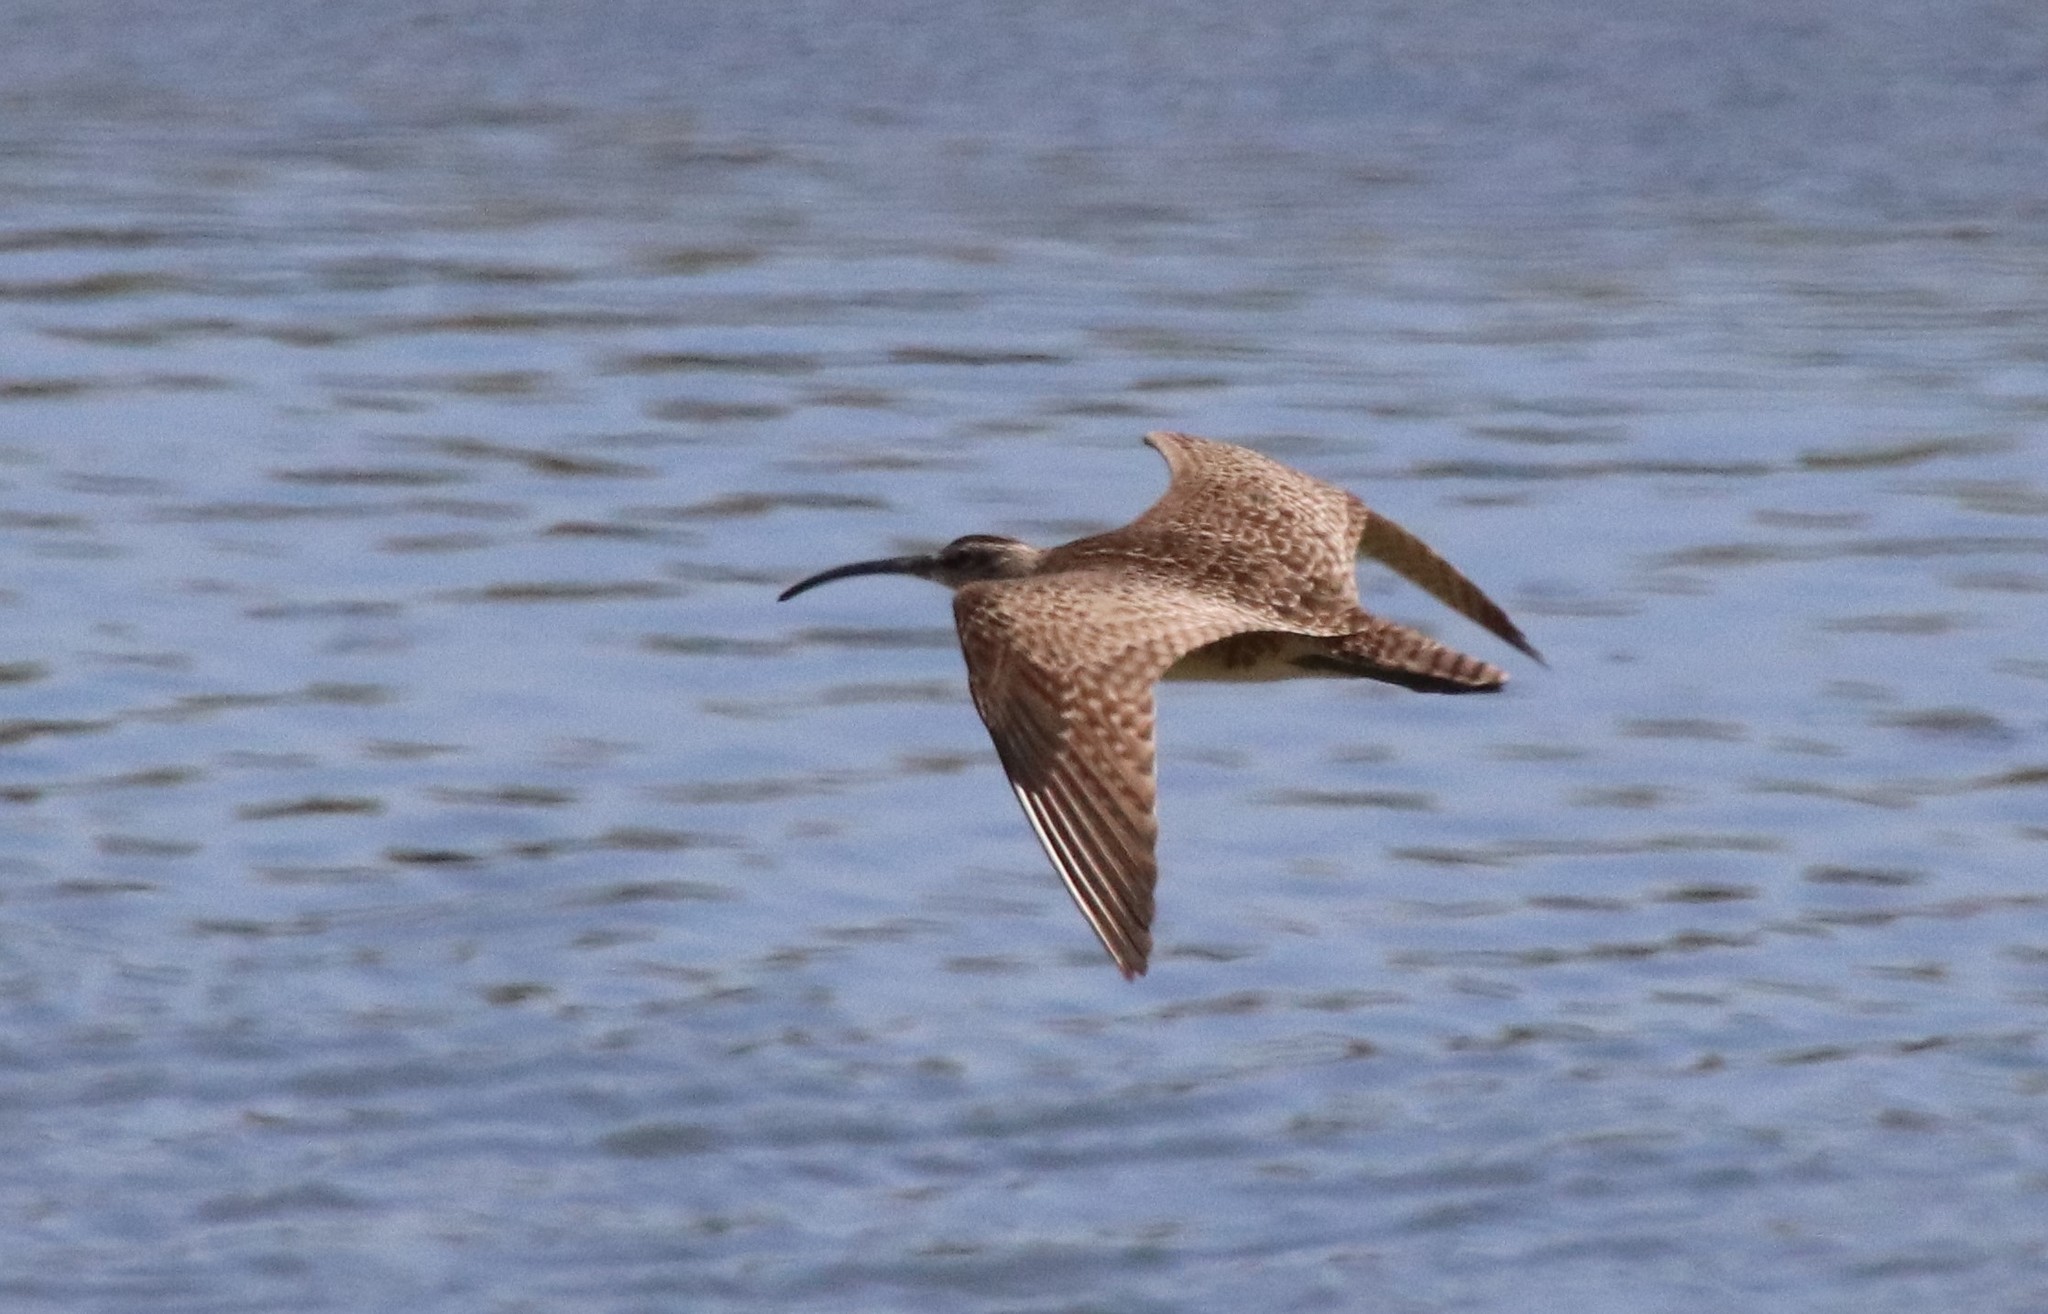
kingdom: Animalia
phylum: Chordata
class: Aves
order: Charadriiformes
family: Scolopacidae
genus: Numenius
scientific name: Numenius phaeopus
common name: Whimbrel
